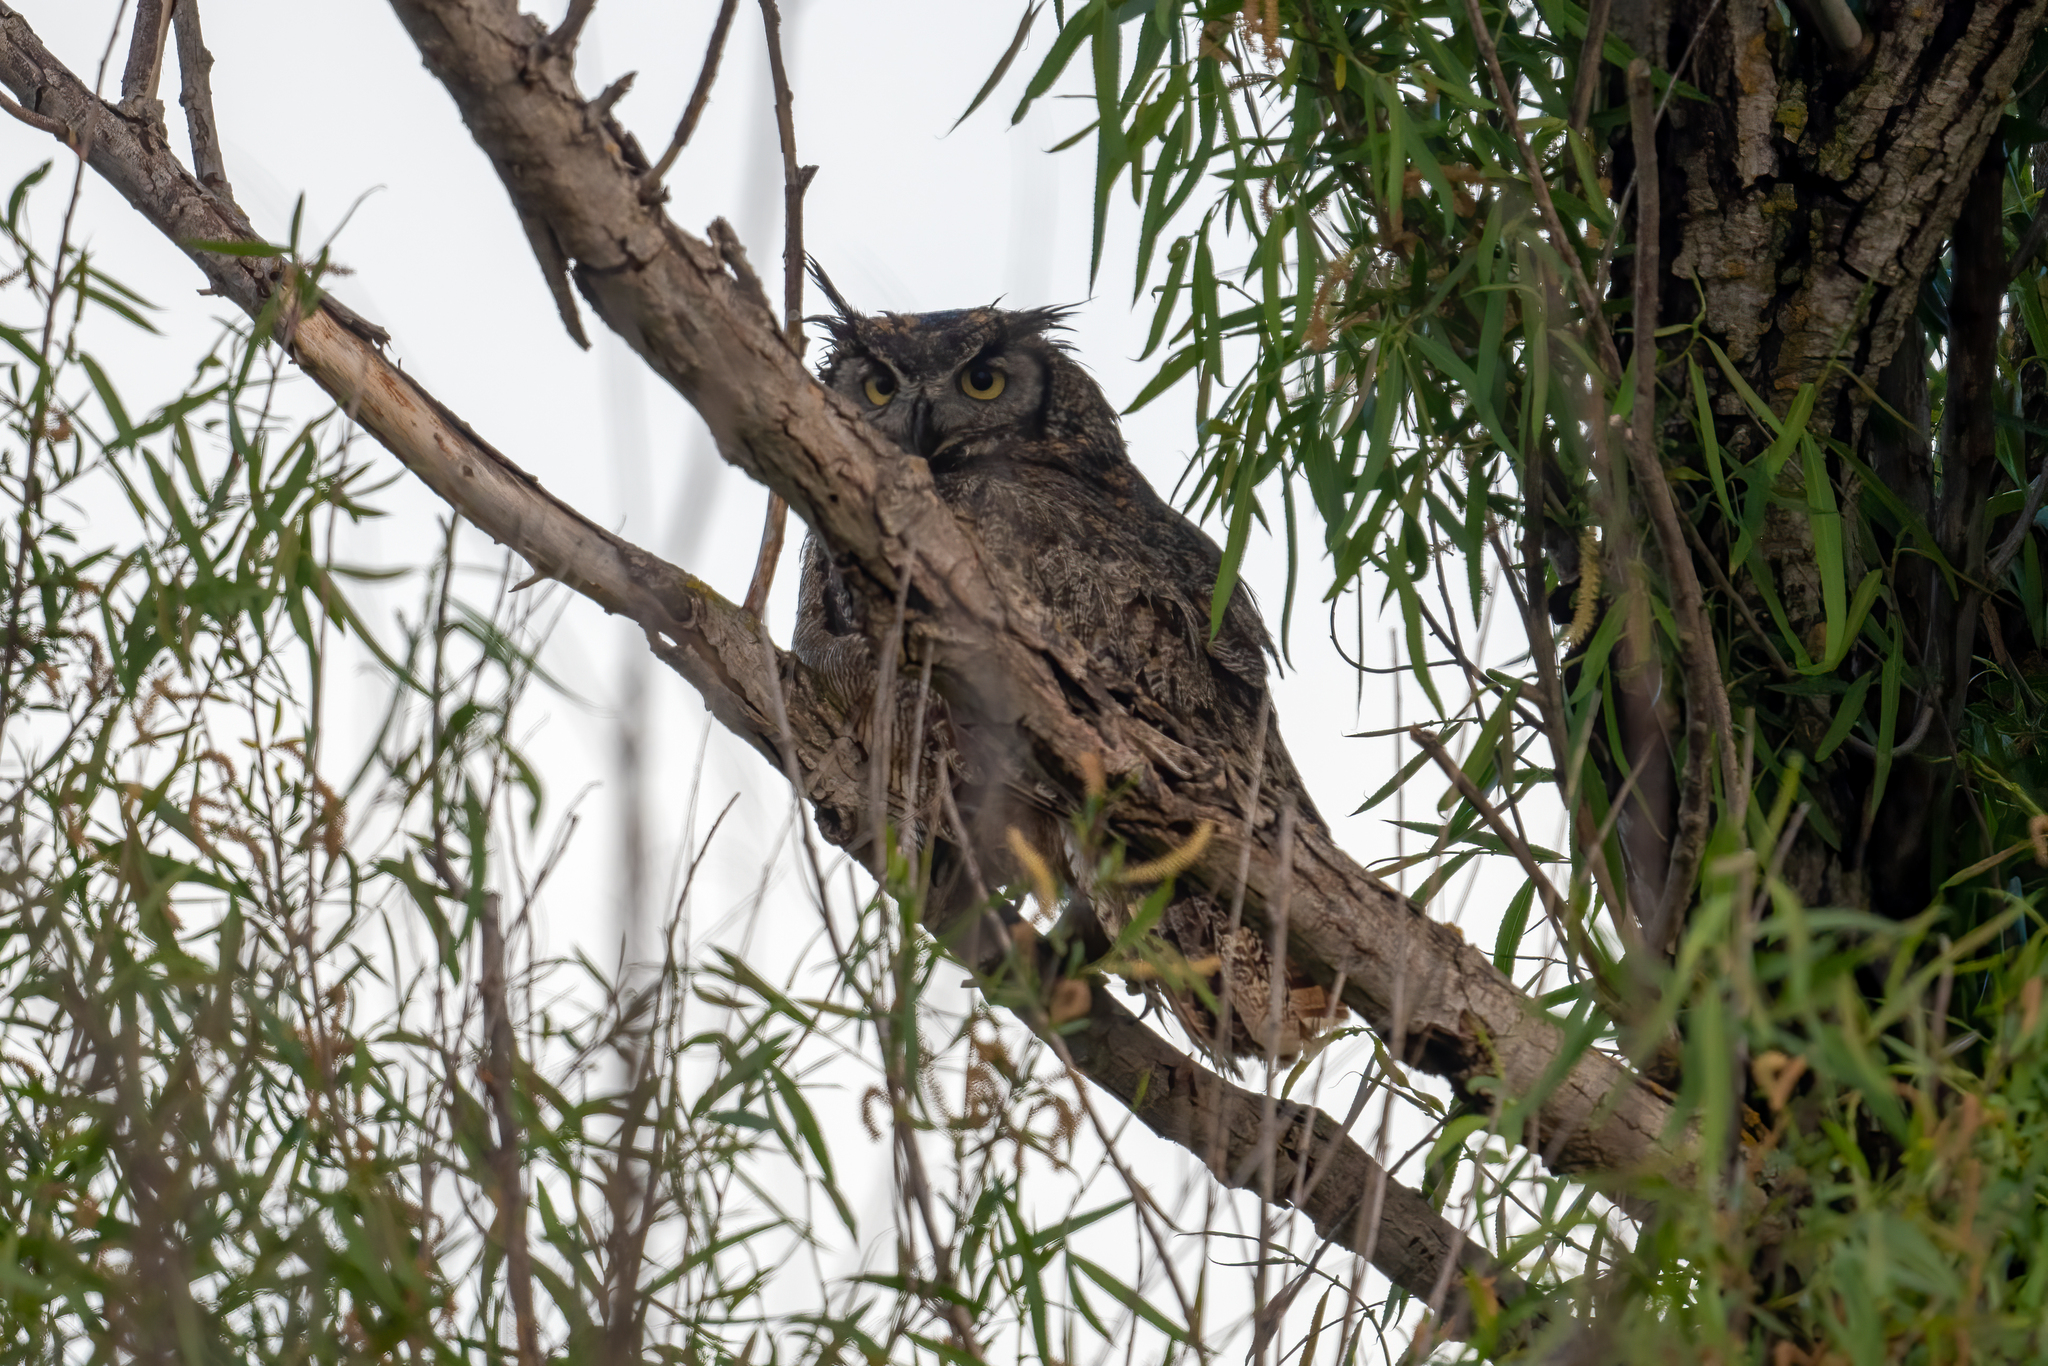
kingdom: Animalia
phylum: Chordata
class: Aves
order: Strigiformes
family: Strigidae
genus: Bubo
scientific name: Bubo virginianus
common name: Great horned owl
